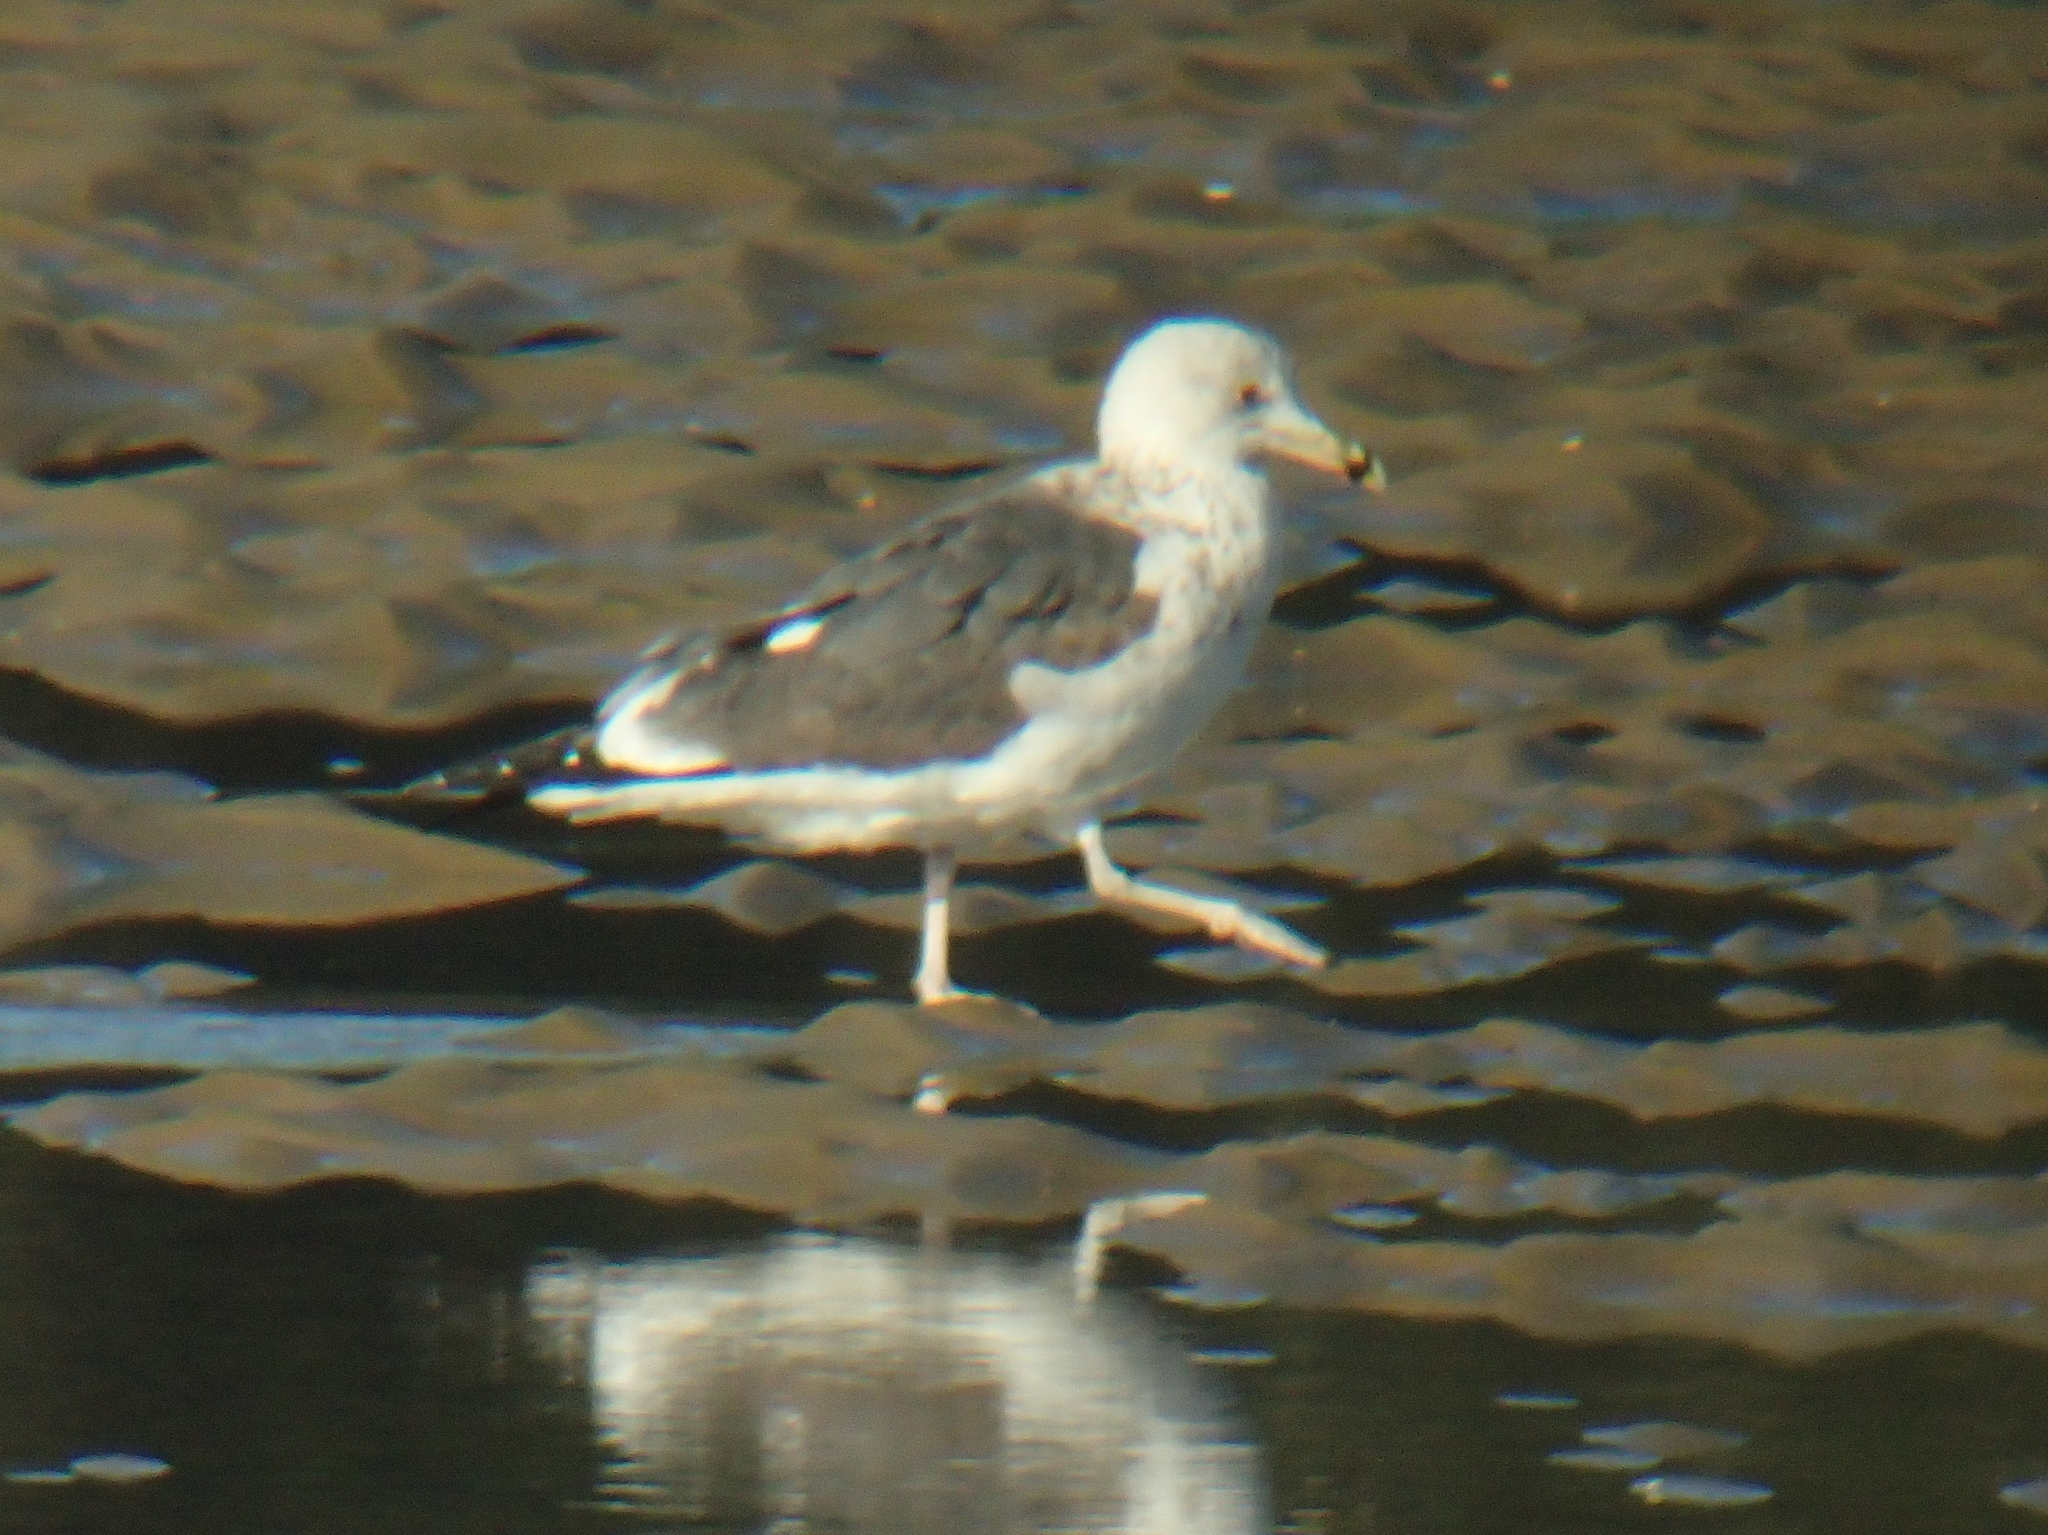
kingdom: Animalia
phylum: Chordata
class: Aves
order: Charadriiformes
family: Laridae
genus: Larus
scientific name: Larus fuscus
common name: Lesser black-backed gull
